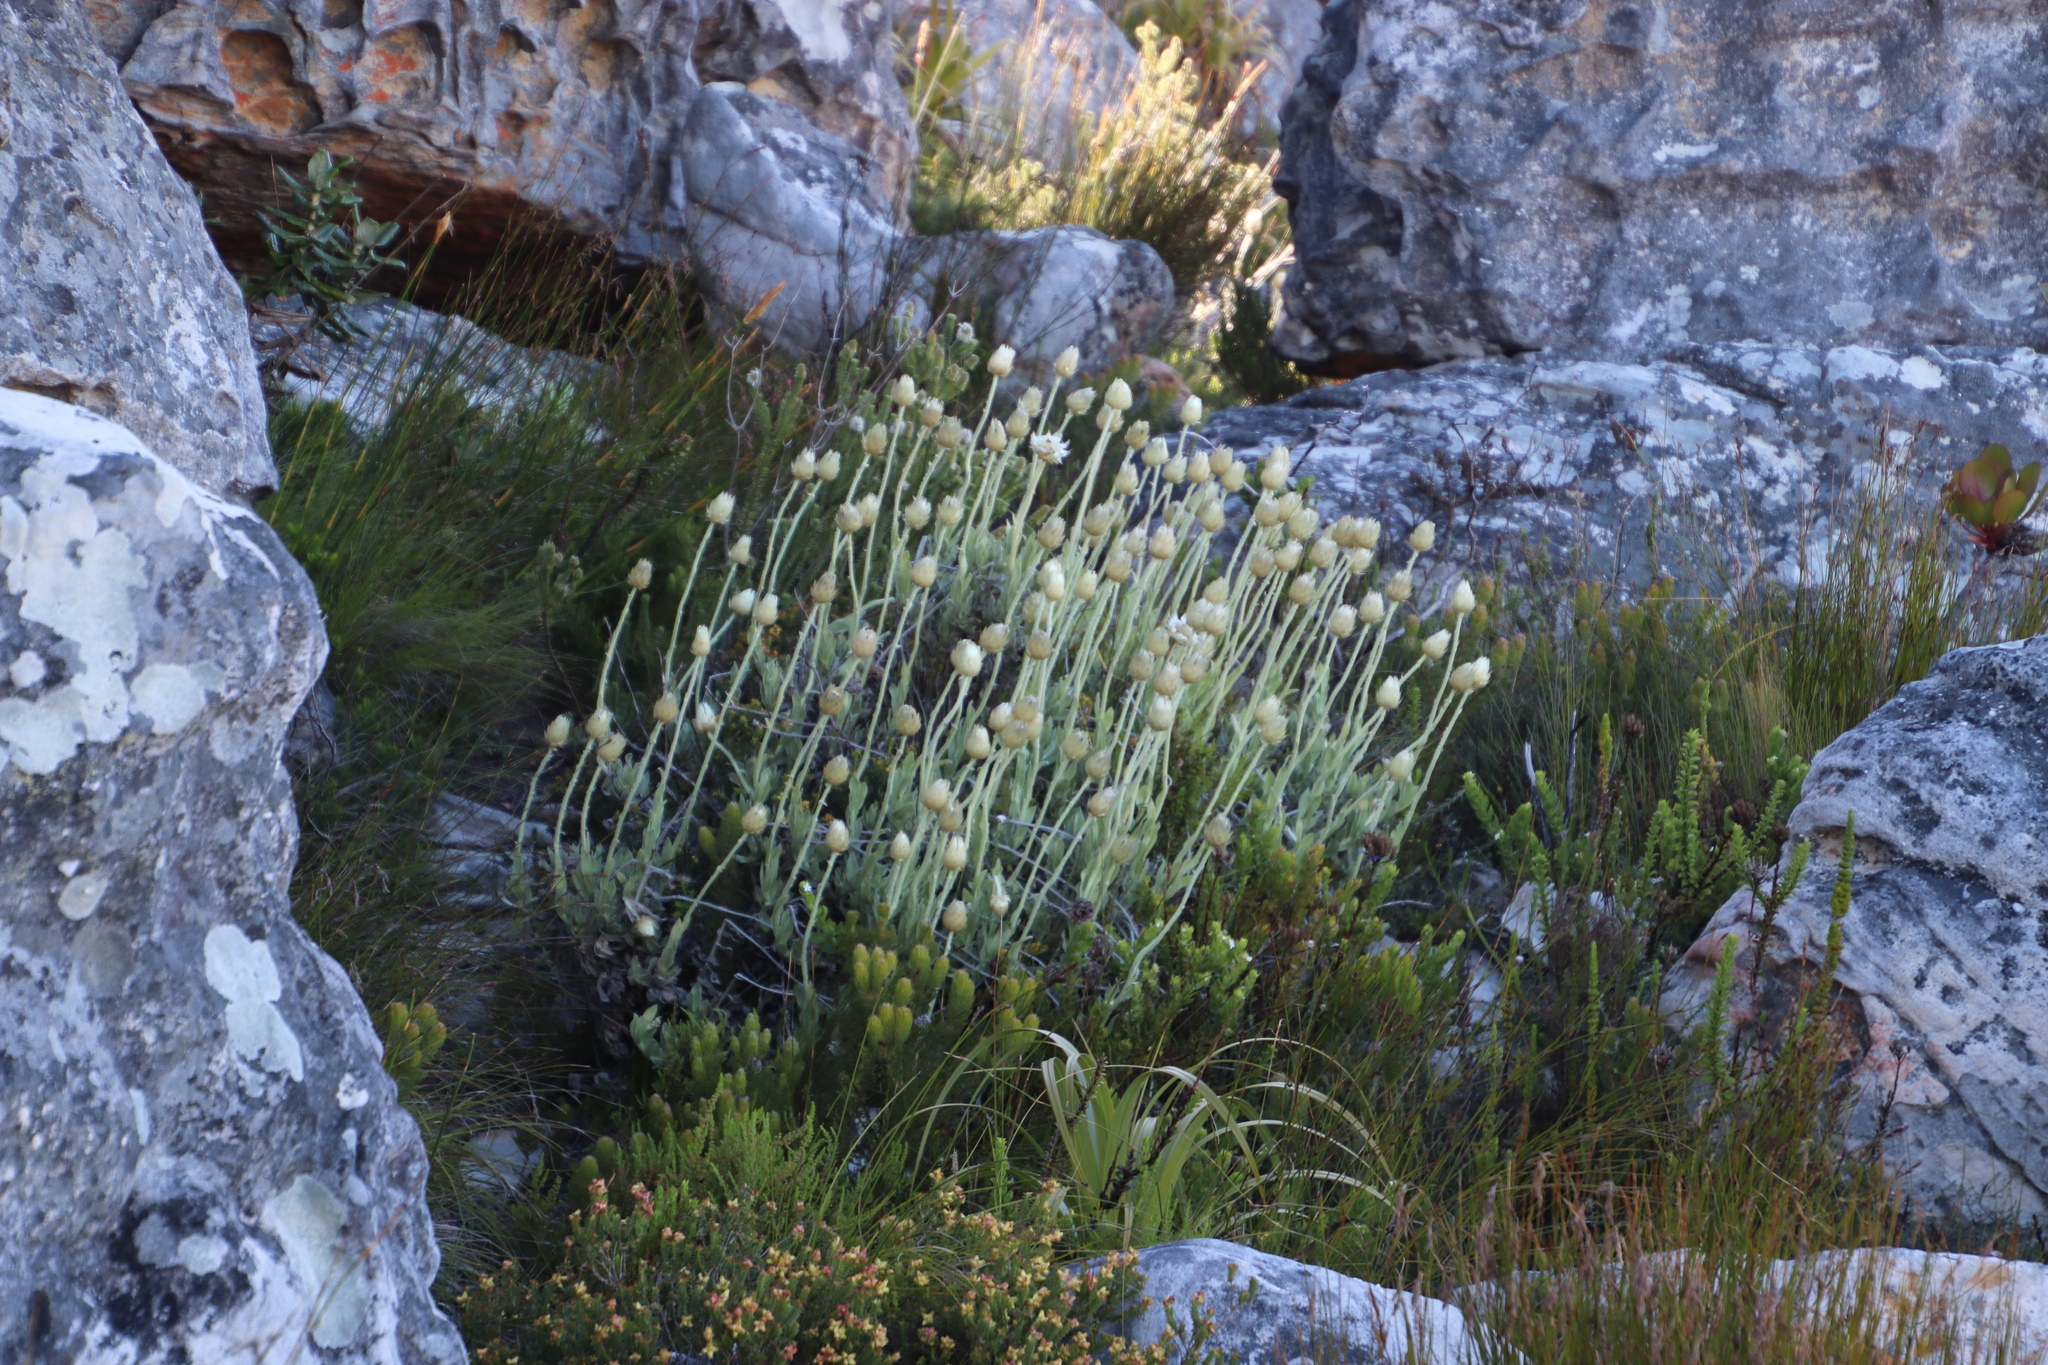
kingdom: Plantae
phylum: Tracheophyta
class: Magnoliopsida
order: Asterales
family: Asteraceae
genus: Syncarpha
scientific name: Syncarpha speciosissima
